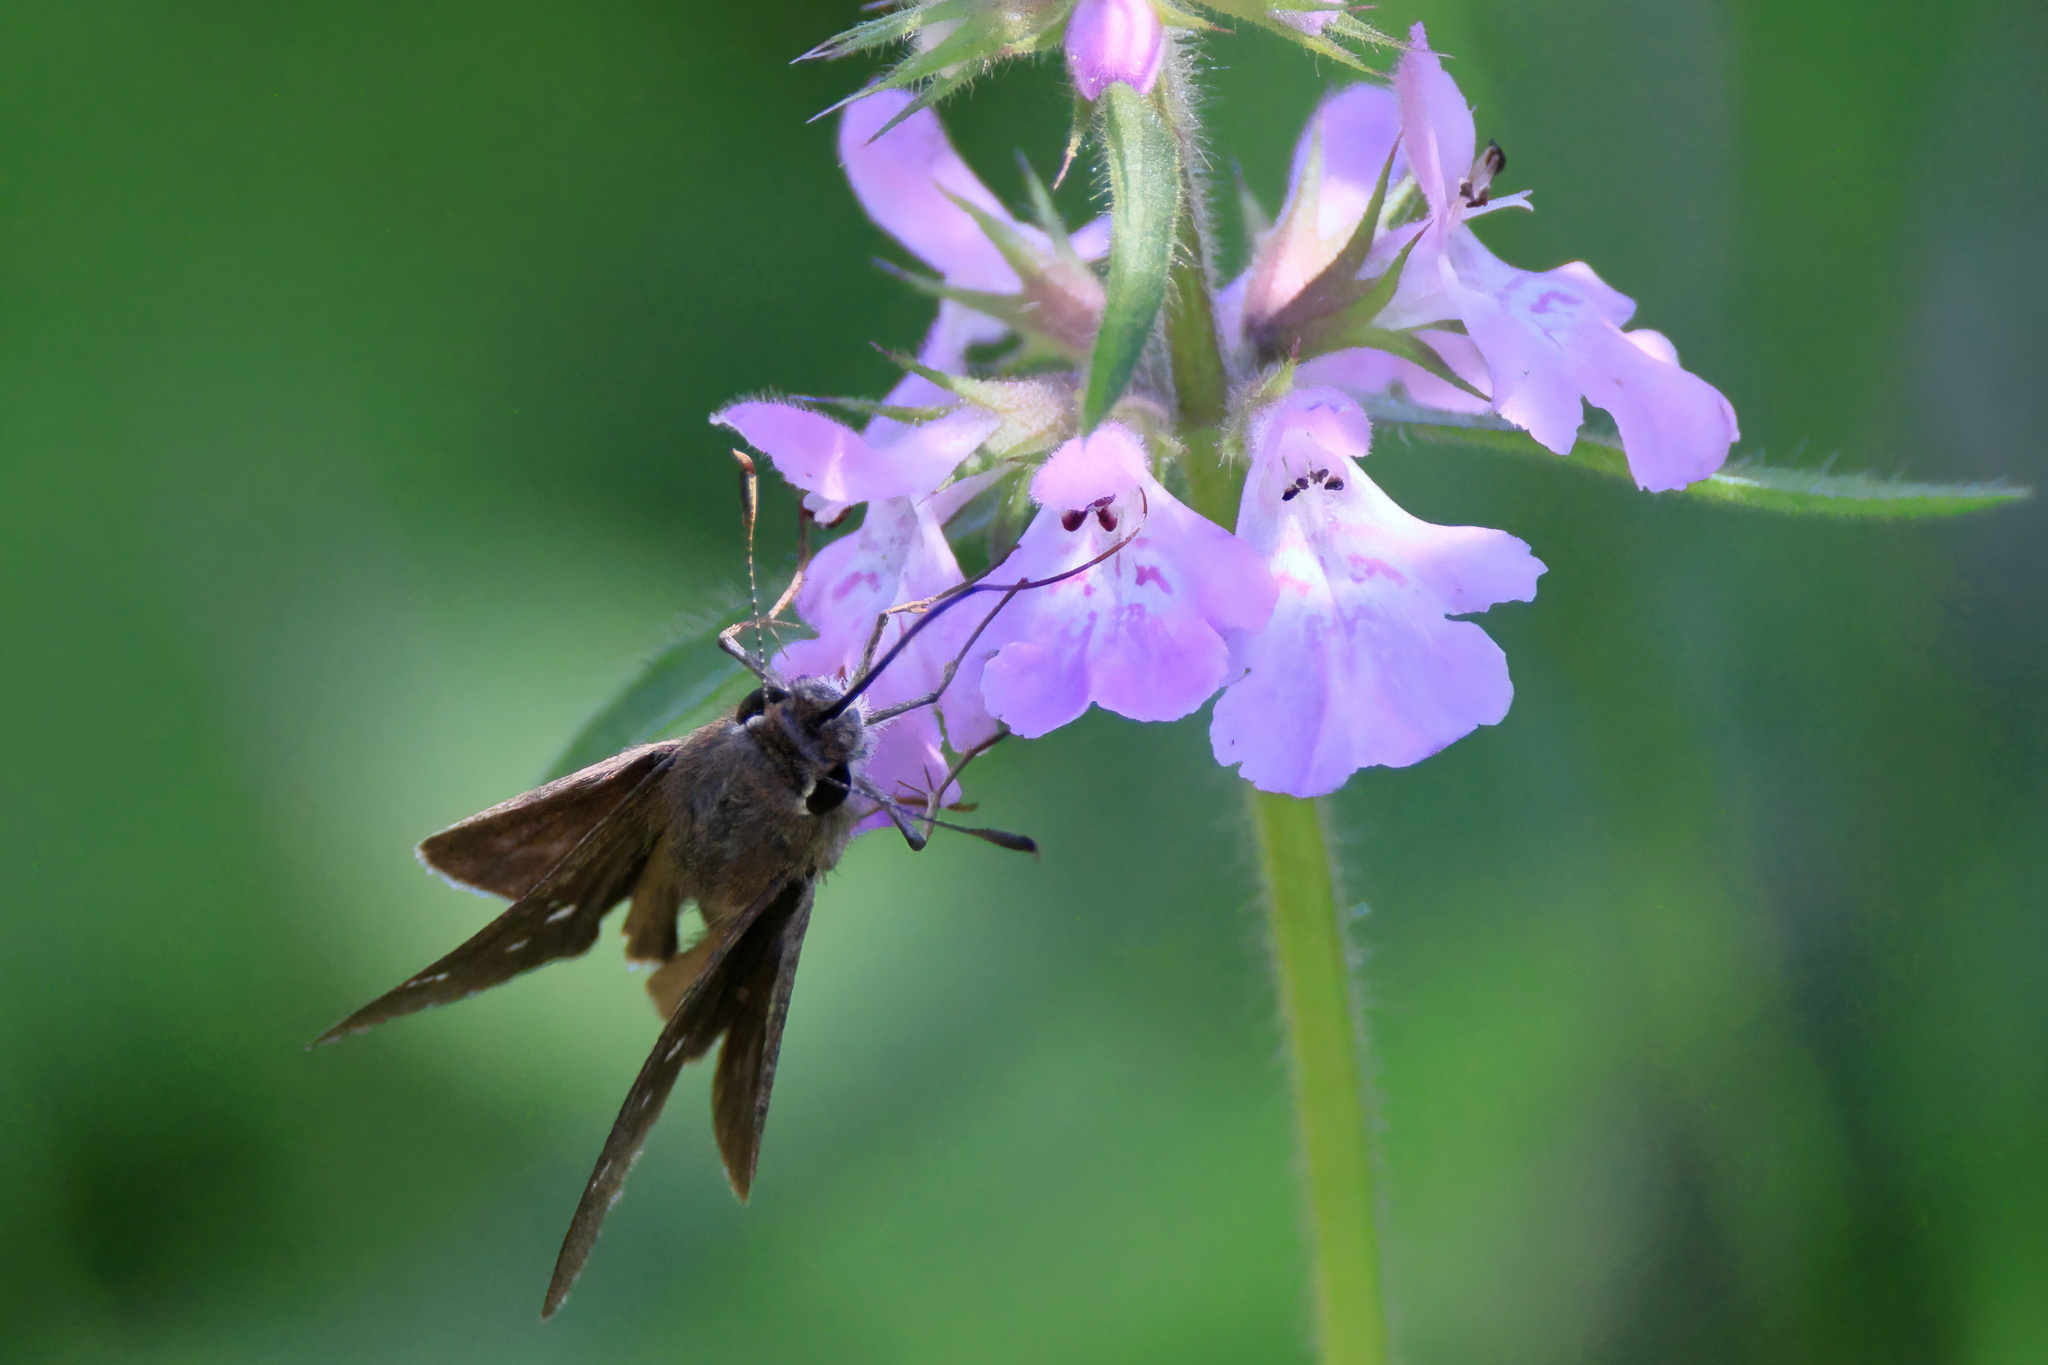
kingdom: Animalia
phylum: Arthropoda
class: Insecta
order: Lepidoptera
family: Hesperiidae
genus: Lerodea
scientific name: Lerodea eufala
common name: Eufala skipper
